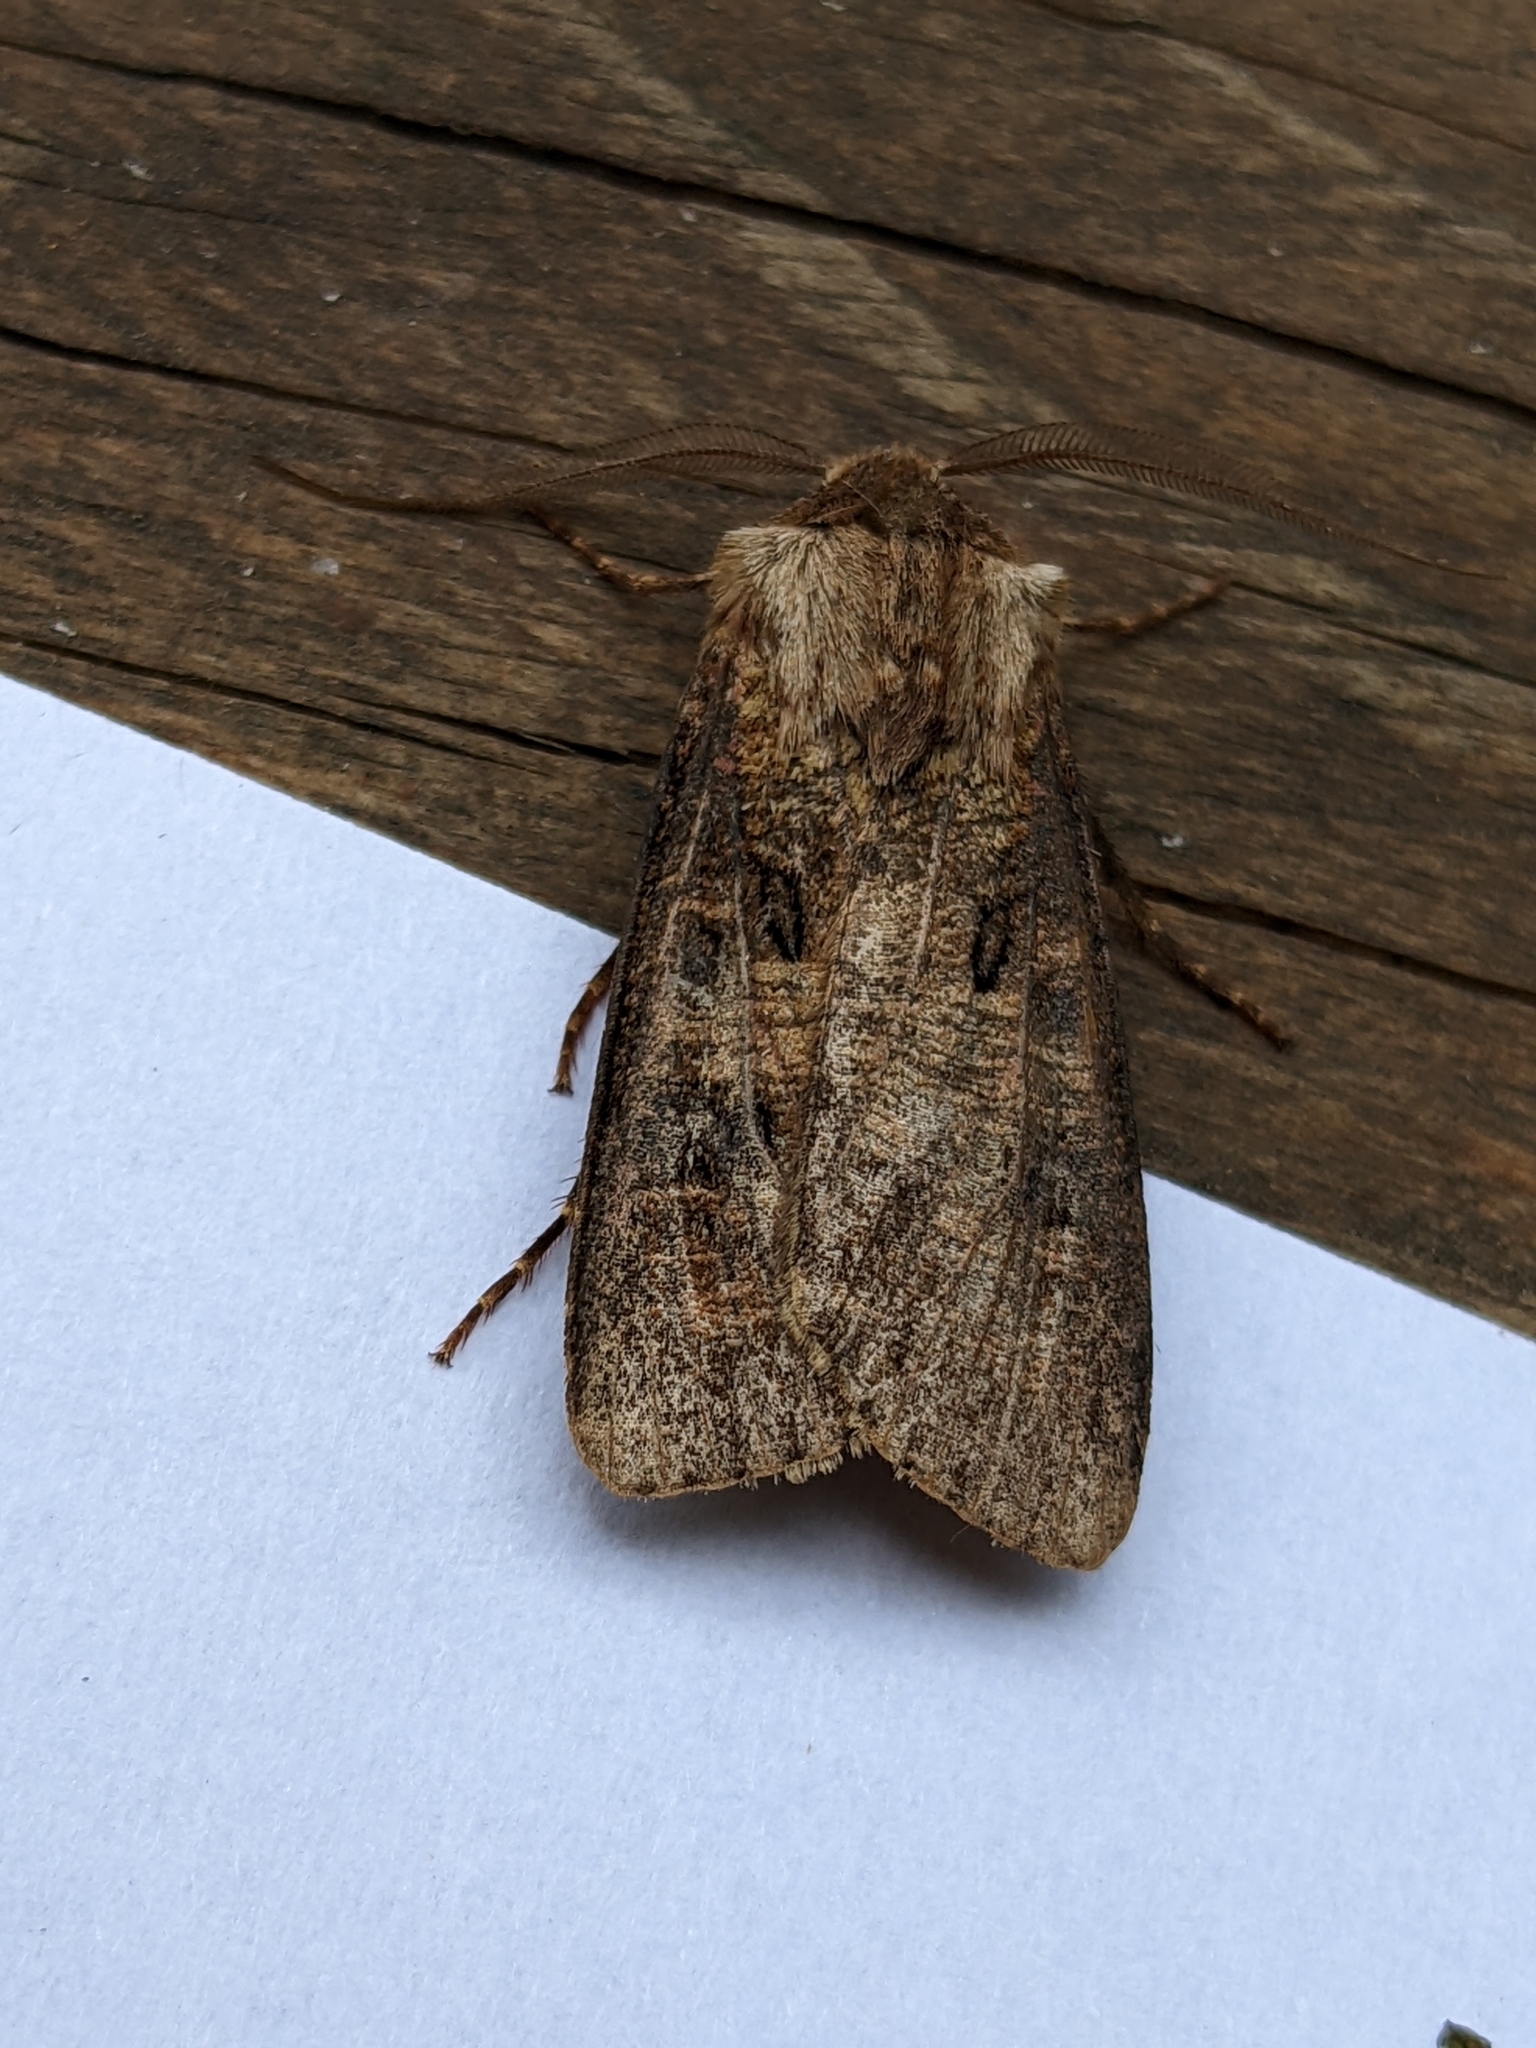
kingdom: Animalia
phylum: Arthropoda
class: Insecta
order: Lepidoptera
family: Noctuidae
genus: Agrotis
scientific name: Agrotis clavis
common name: Heart and club
